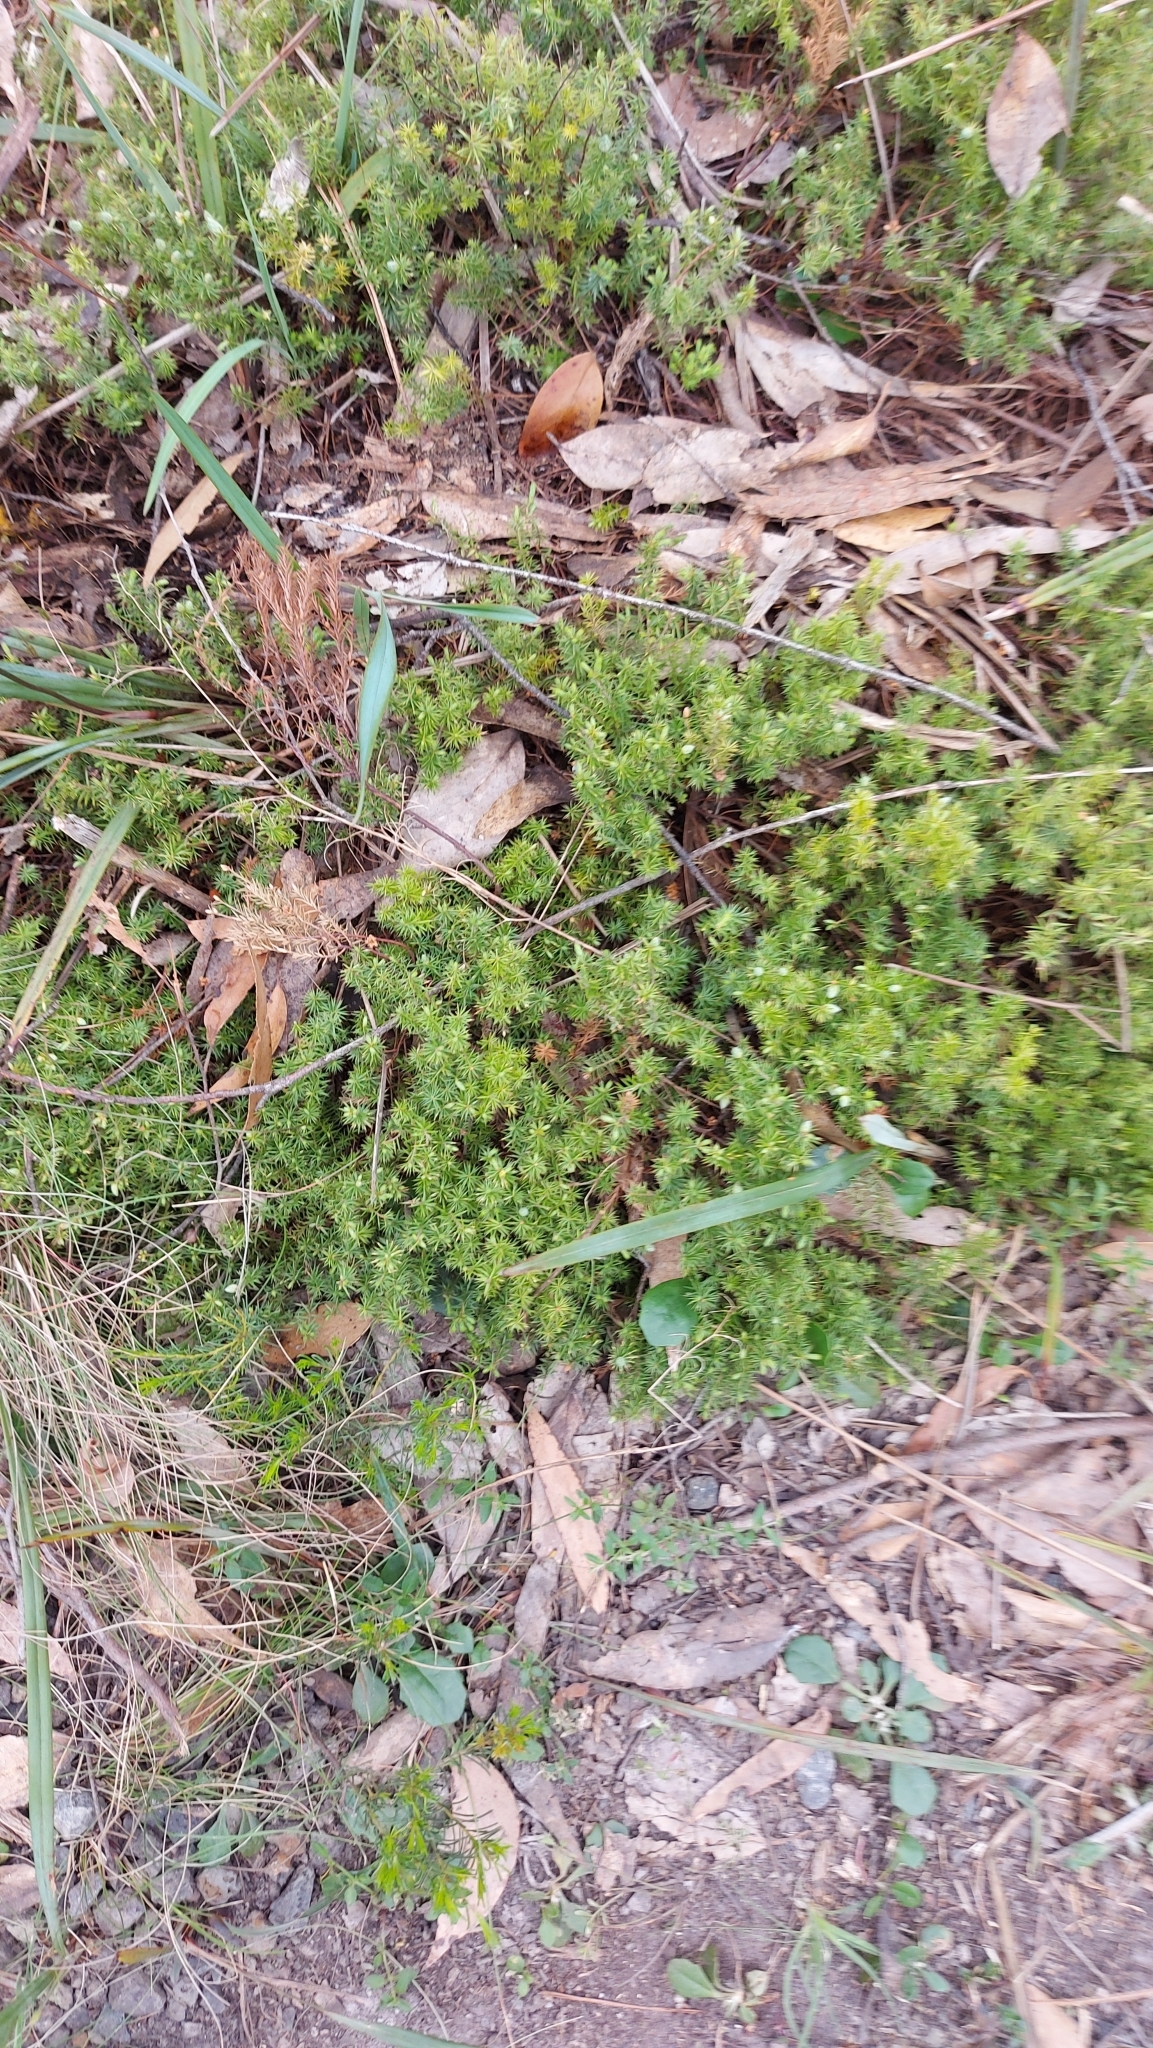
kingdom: Plantae
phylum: Tracheophyta
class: Magnoliopsida
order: Ericales
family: Ericaceae
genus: Acrotriche
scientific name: Acrotriche serrulata
